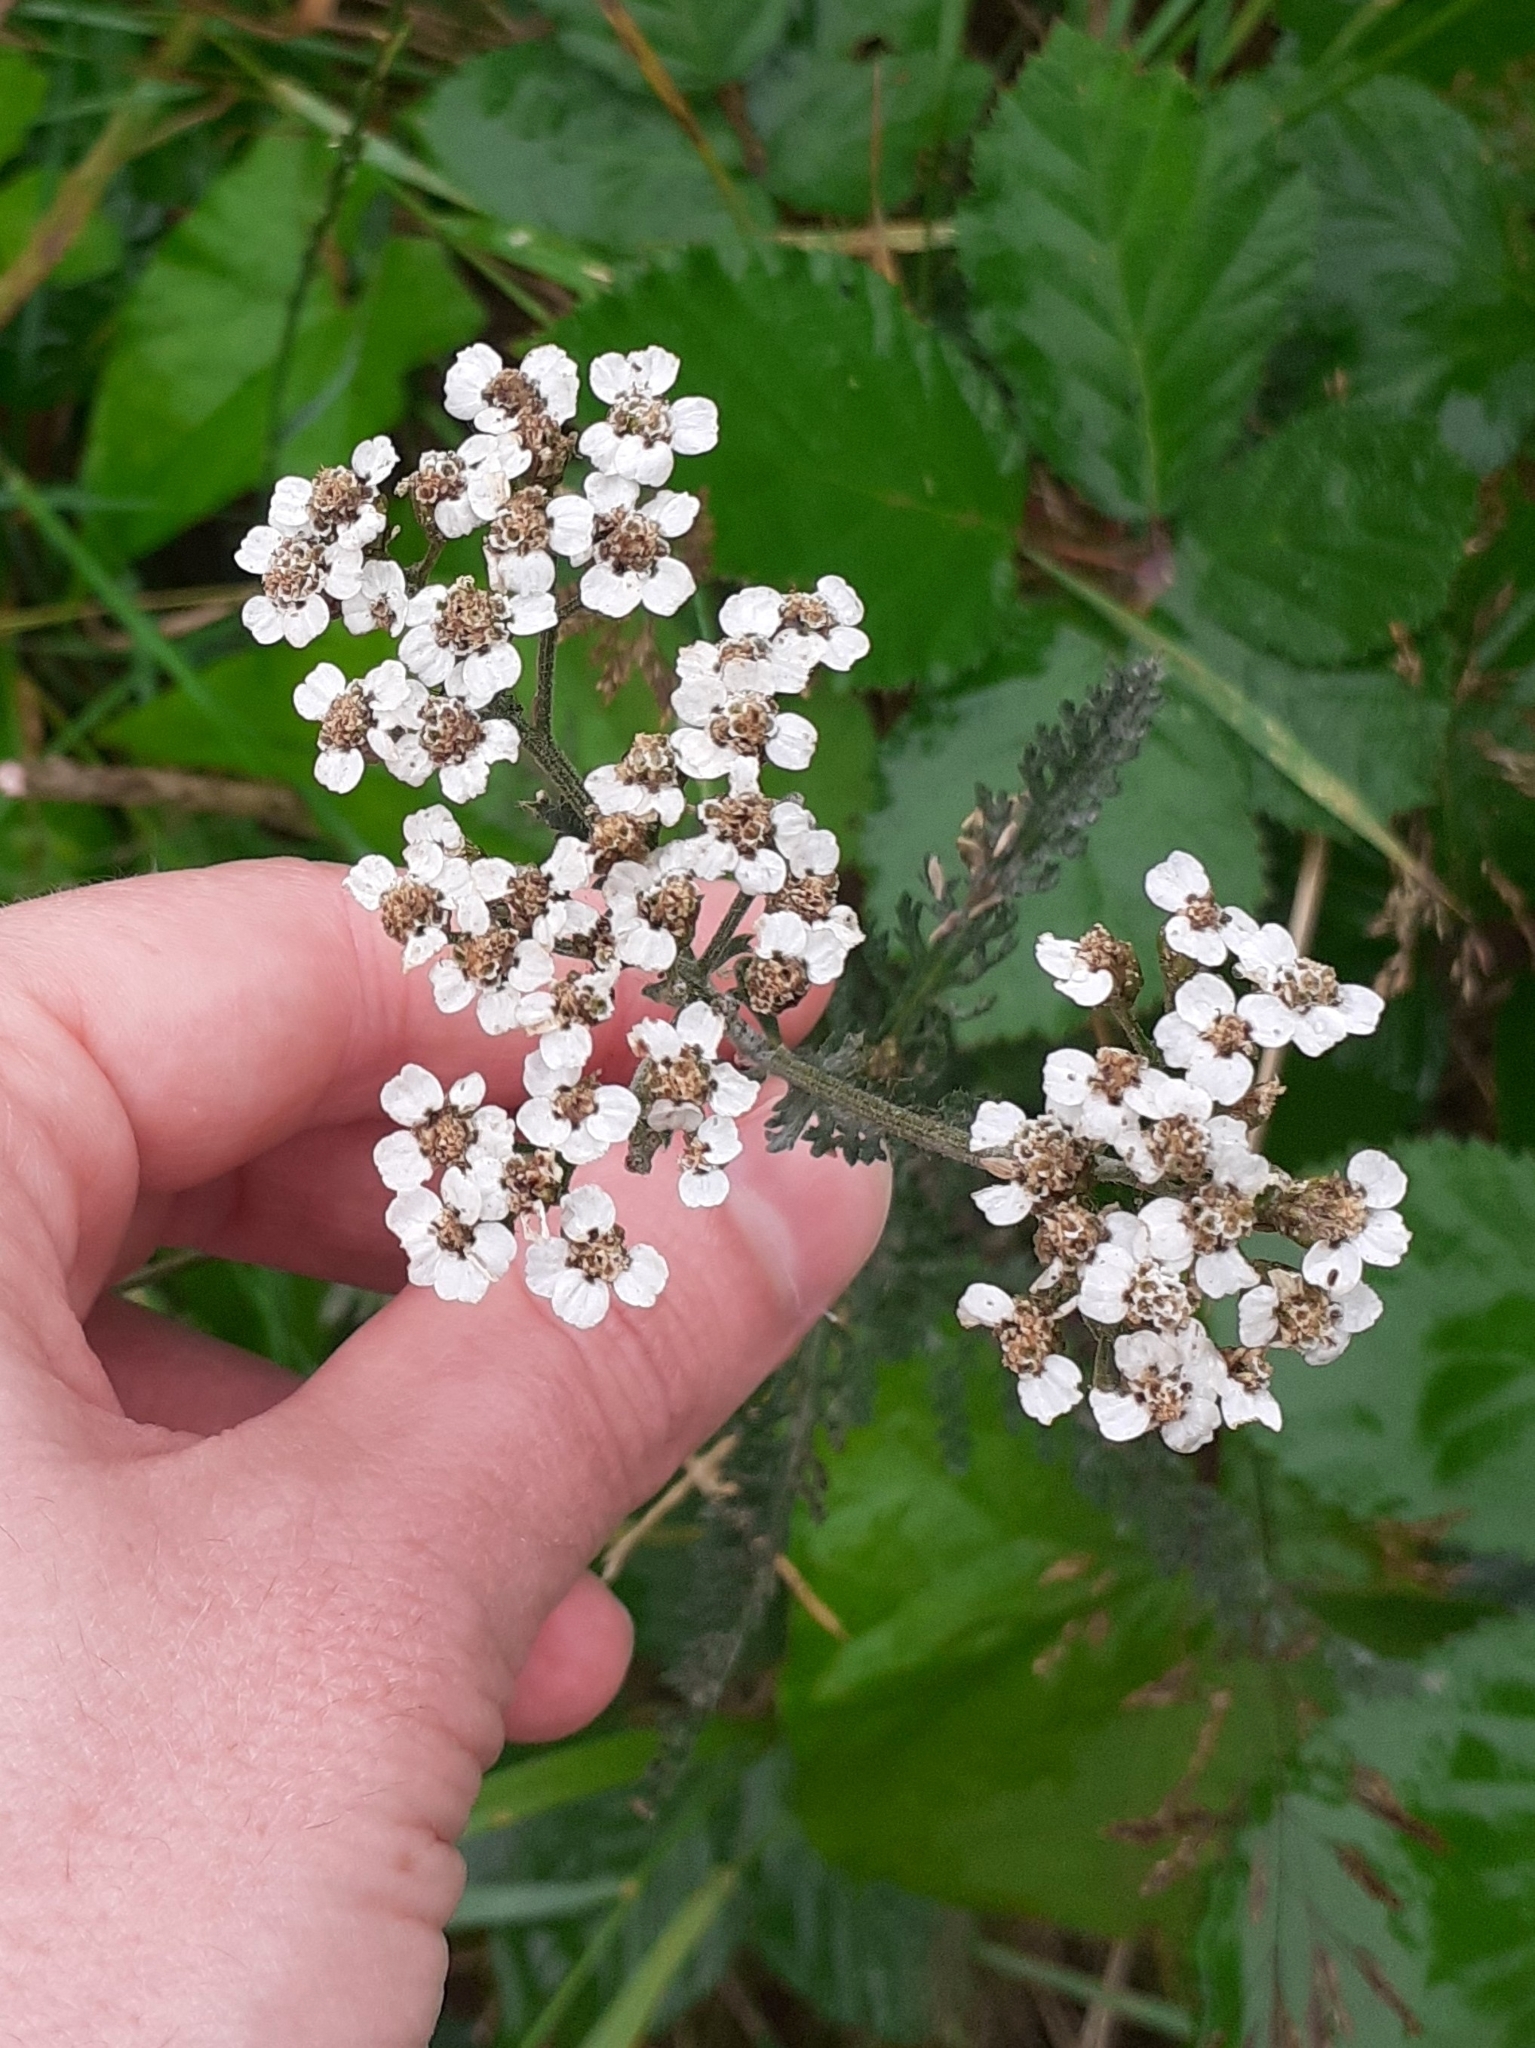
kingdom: Plantae
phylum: Tracheophyta
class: Magnoliopsida
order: Asterales
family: Asteraceae
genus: Achillea
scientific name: Achillea millefolium
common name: Yarrow
